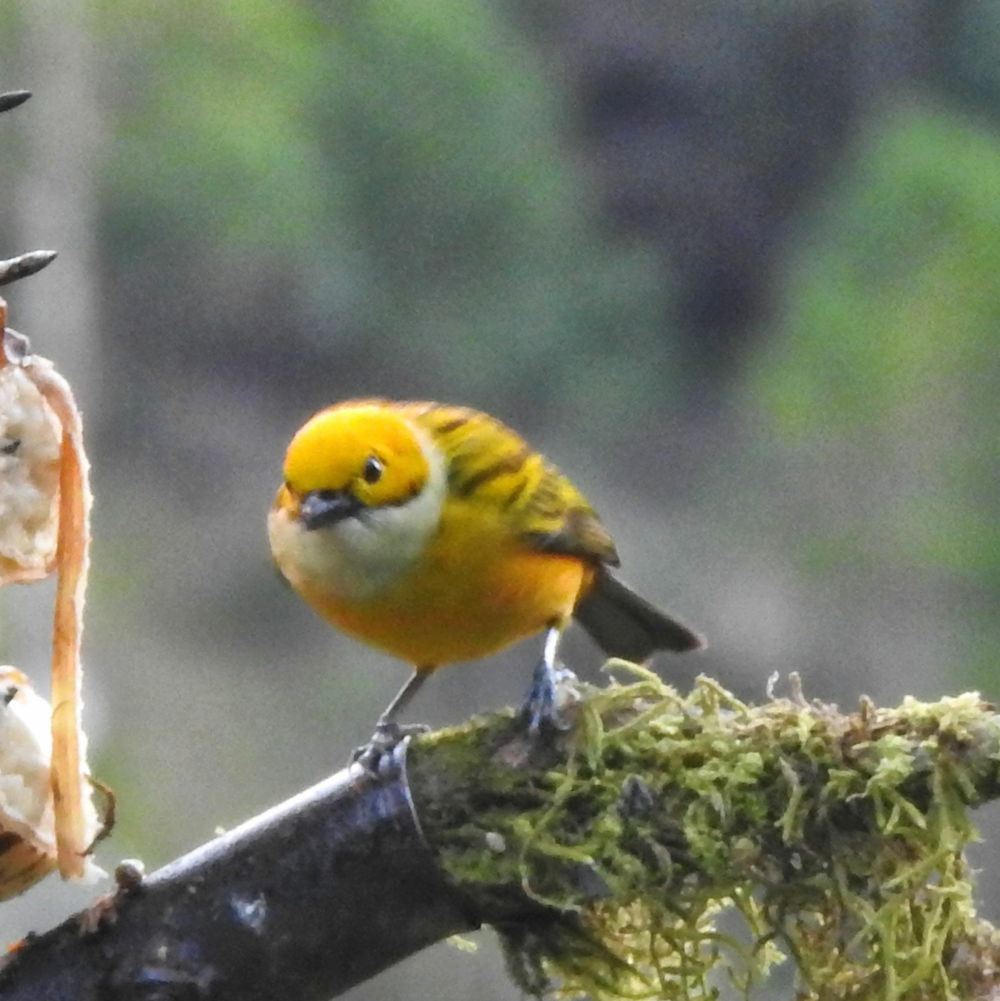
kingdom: Animalia
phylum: Chordata
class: Aves
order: Passeriformes
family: Thraupidae
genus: Tangara
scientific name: Tangara icterocephala
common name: Silver-throated tanager
